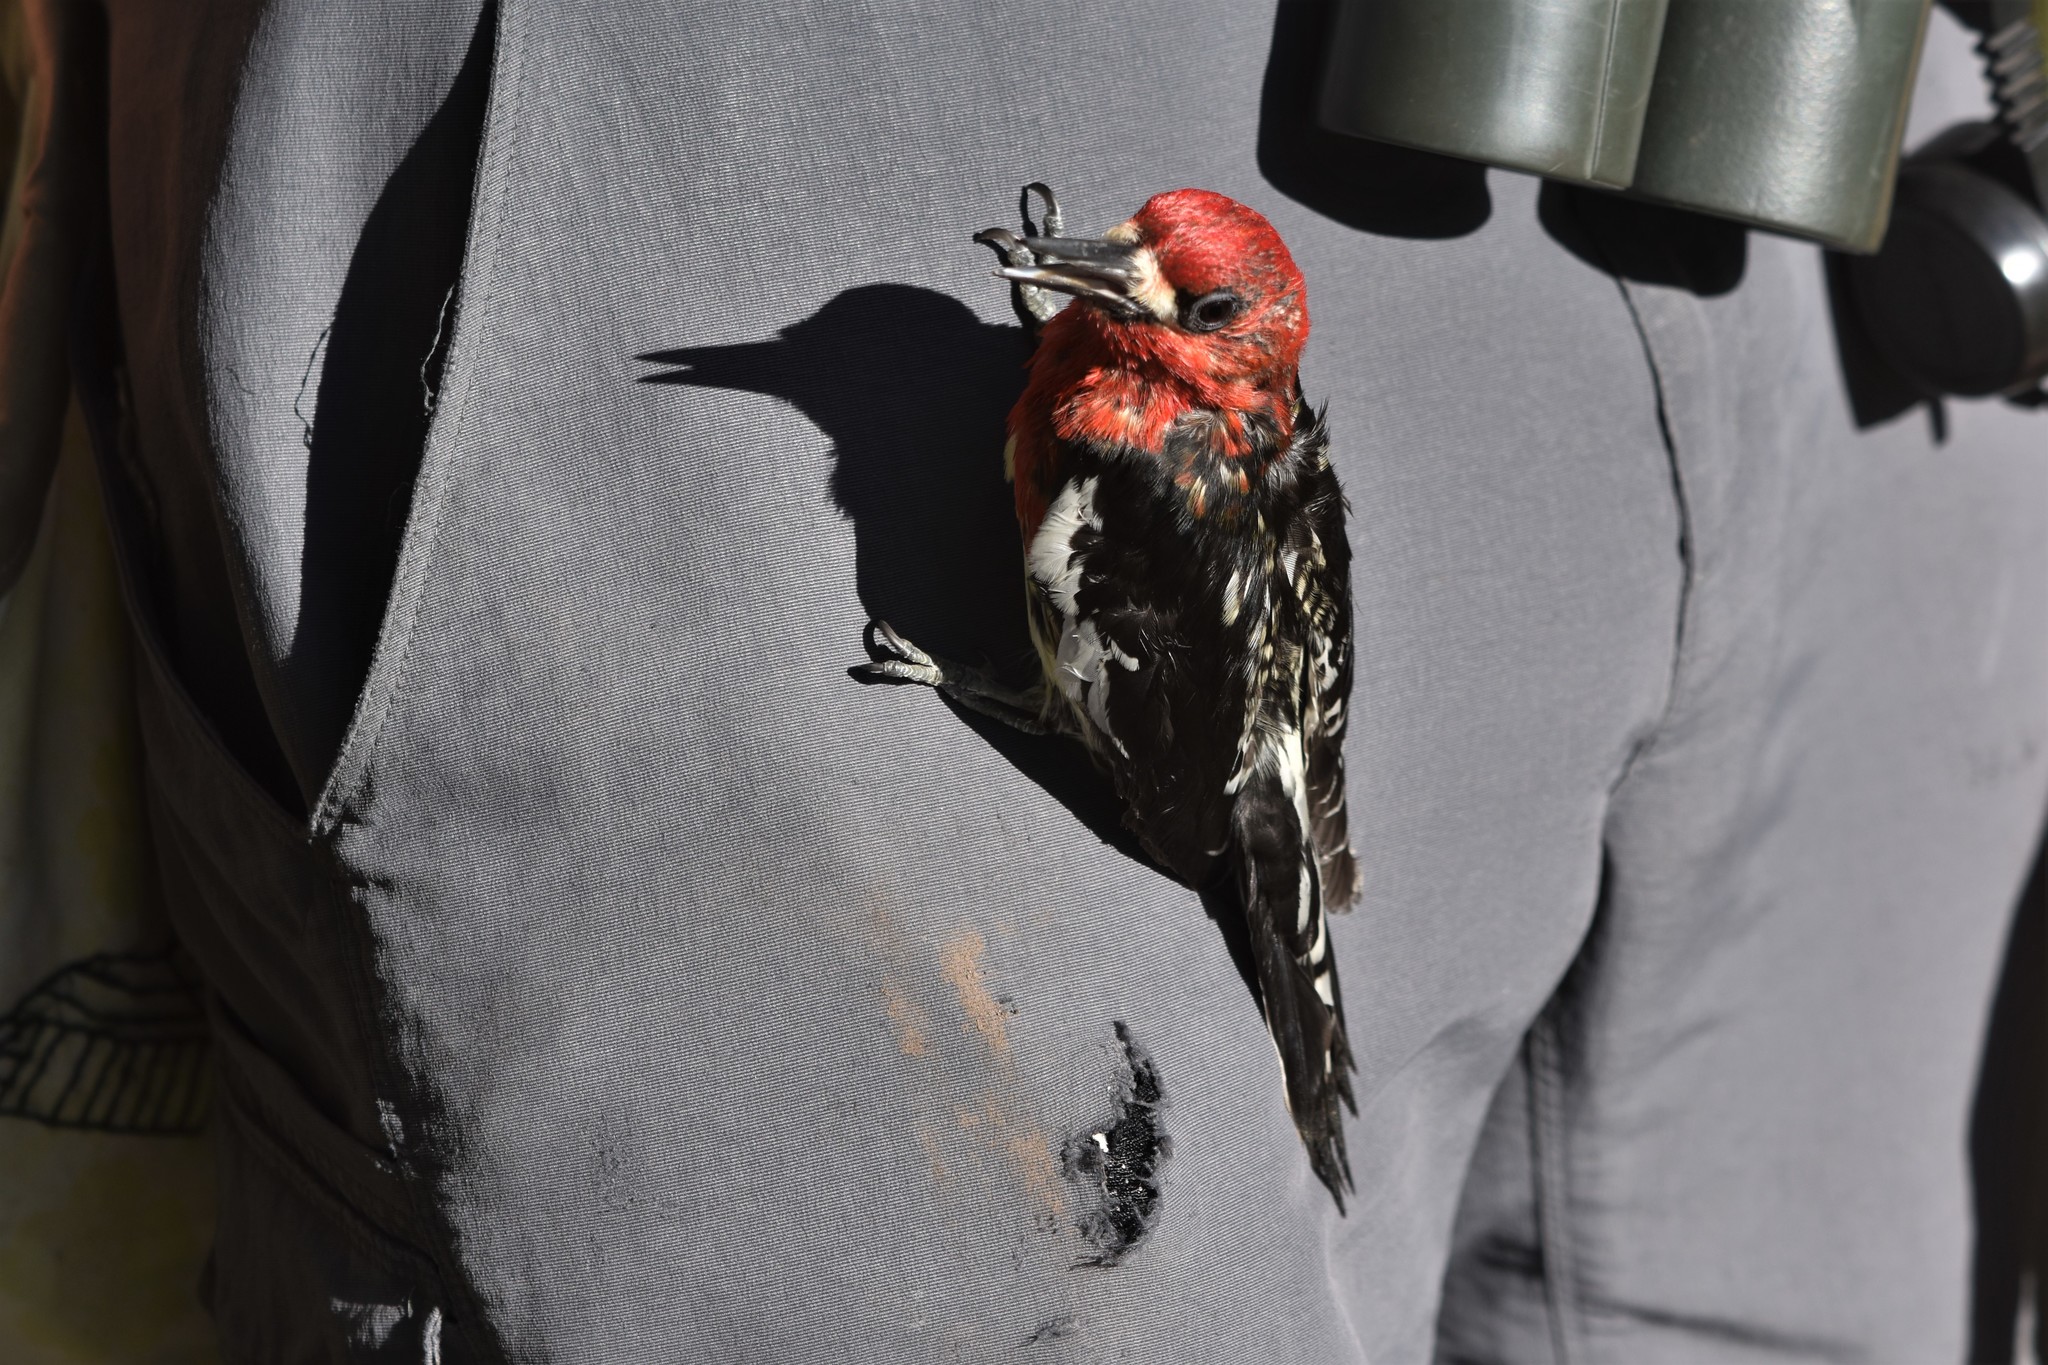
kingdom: Animalia
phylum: Chordata
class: Aves
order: Piciformes
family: Picidae
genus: Sphyrapicus
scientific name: Sphyrapicus ruber
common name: Red-breasted sapsucker
